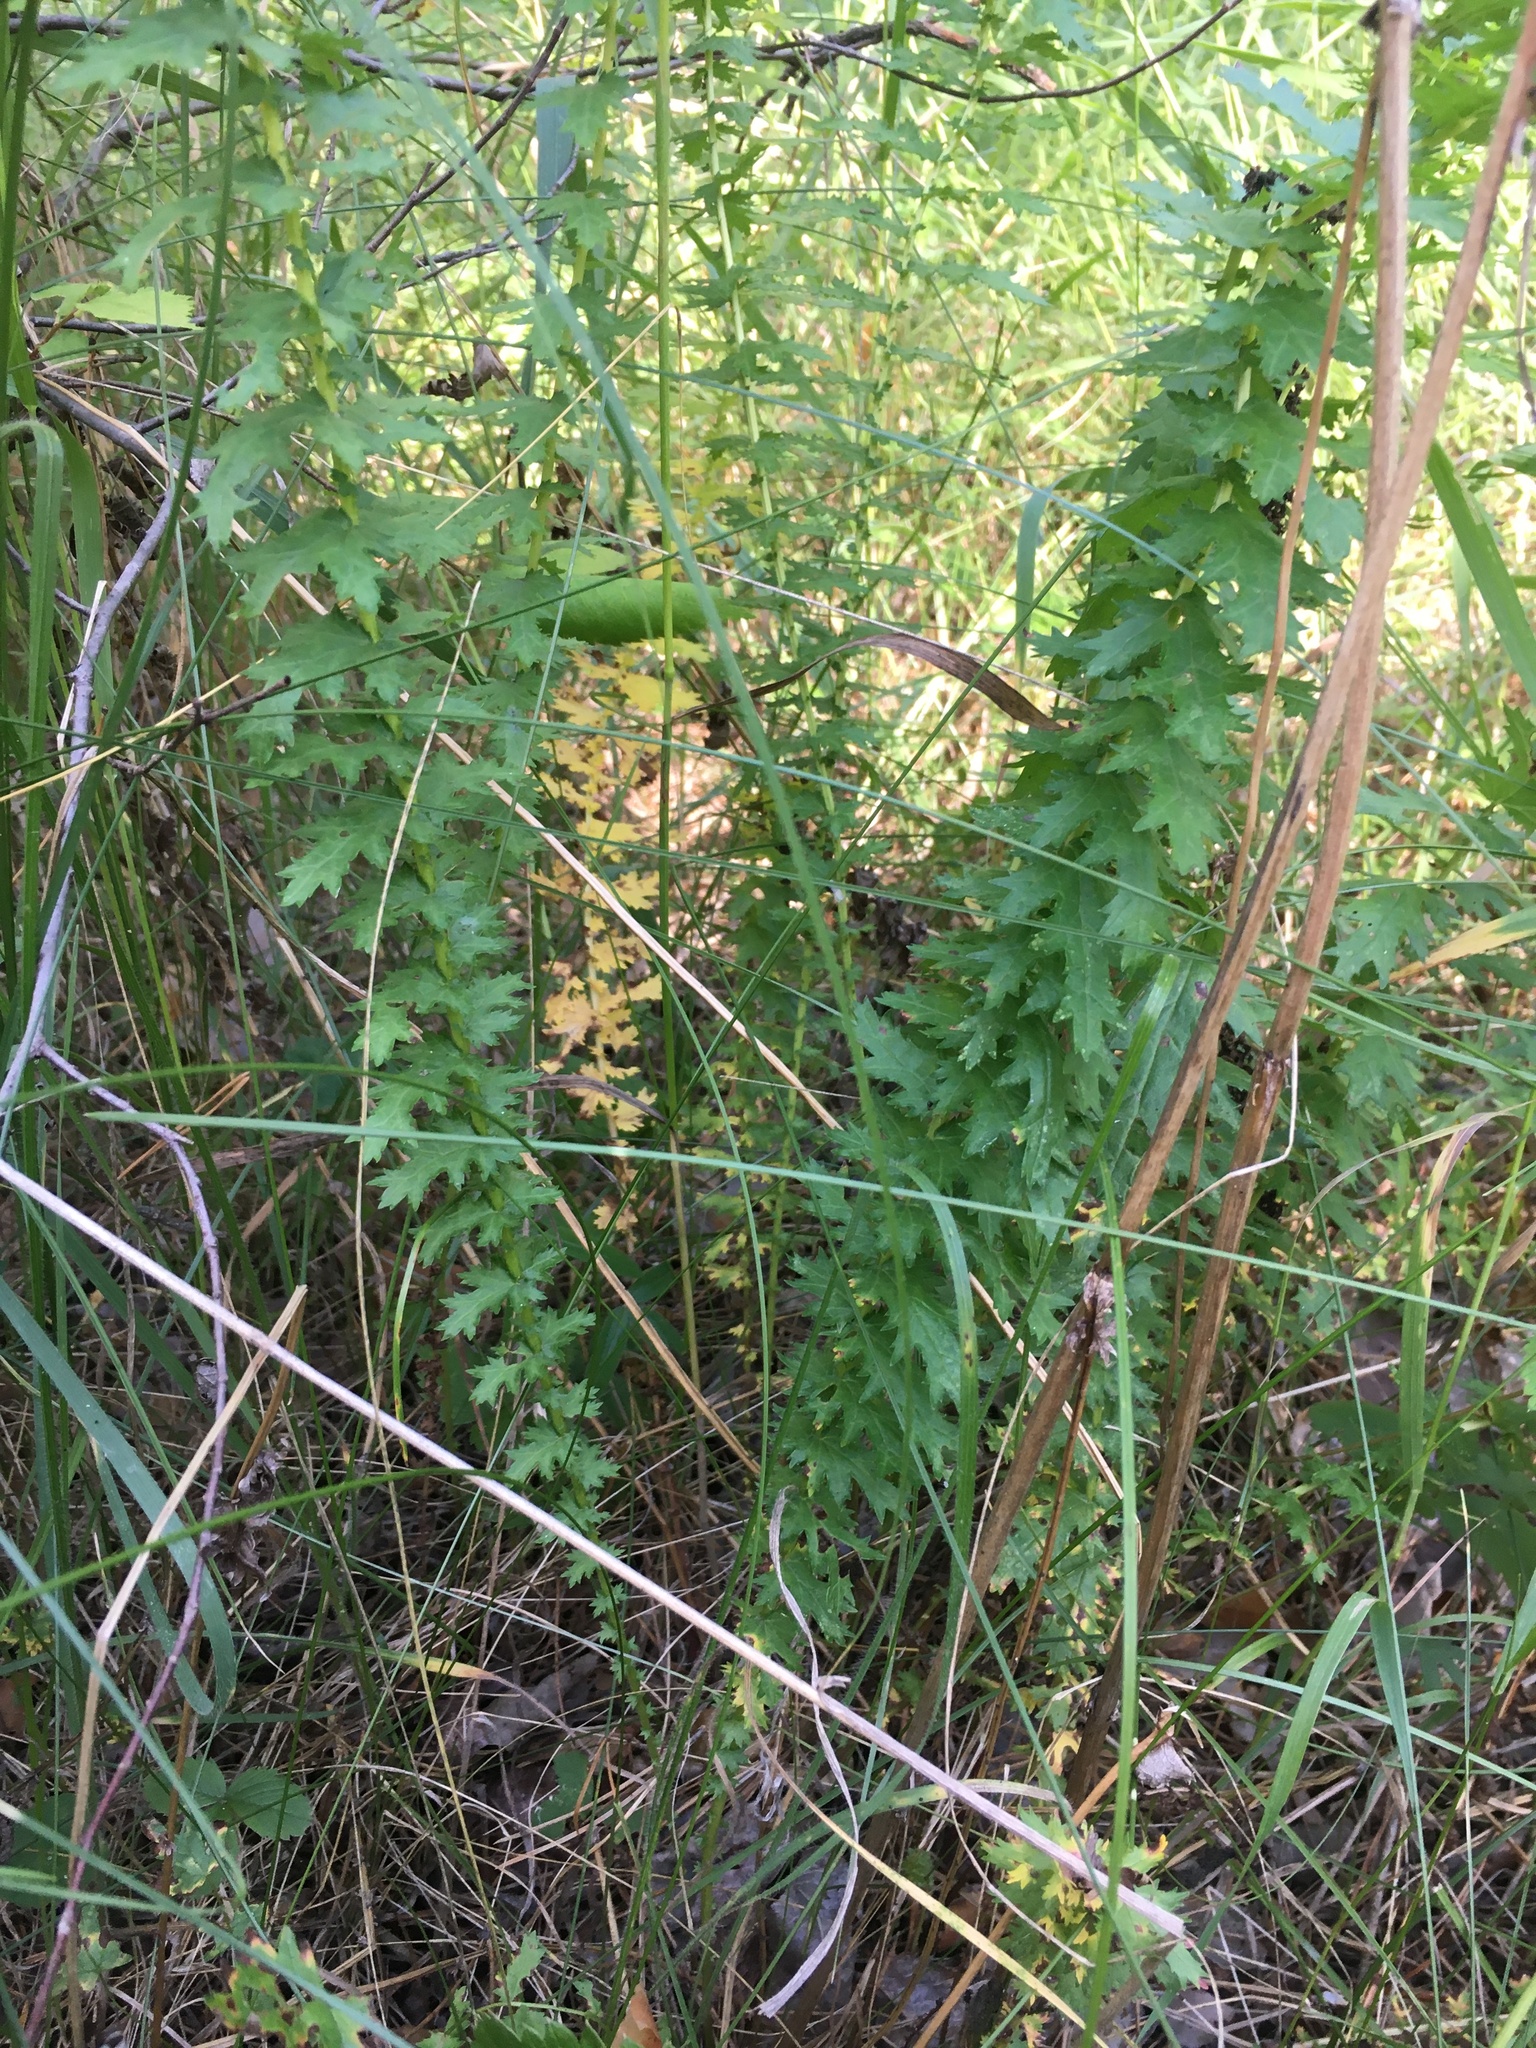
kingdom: Plantae
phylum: Tracheophyta
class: Magnoliopsida
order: Rosales
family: Rosaceae
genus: Filipendula
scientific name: Filipendula vulgaris
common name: Dropwort
